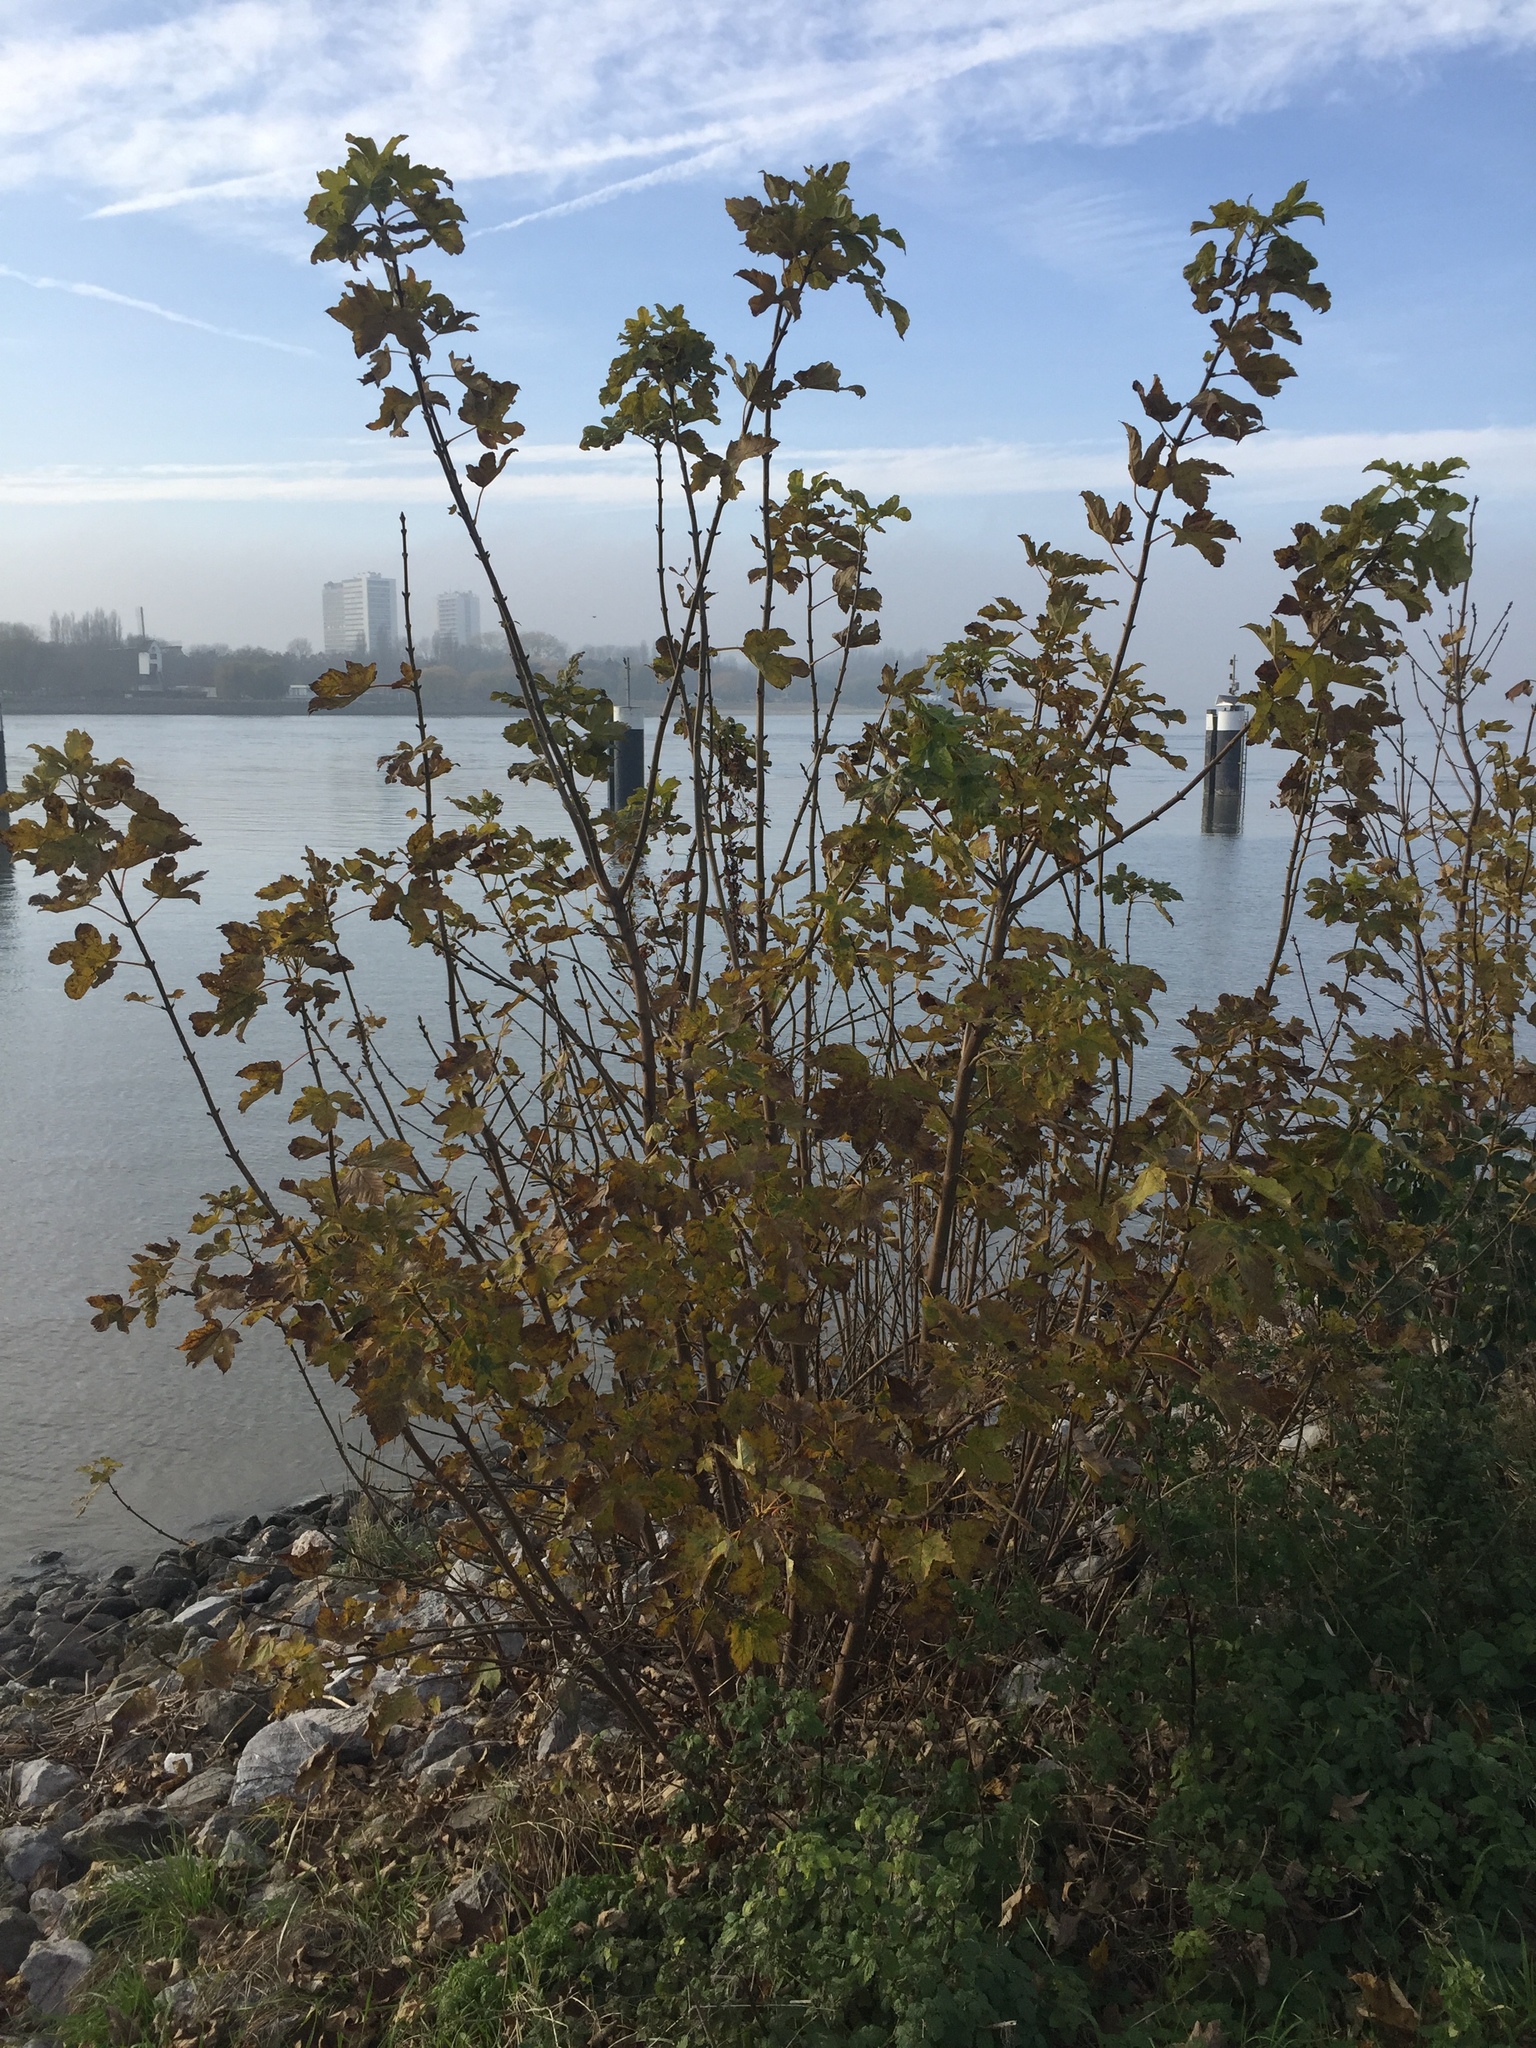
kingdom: Plantae
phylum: Tracheophyta
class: Magnoliopsida
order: Sapindales
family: Sapindaceae
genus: Acer
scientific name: Acer pseudoplatanus
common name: Sycamore
